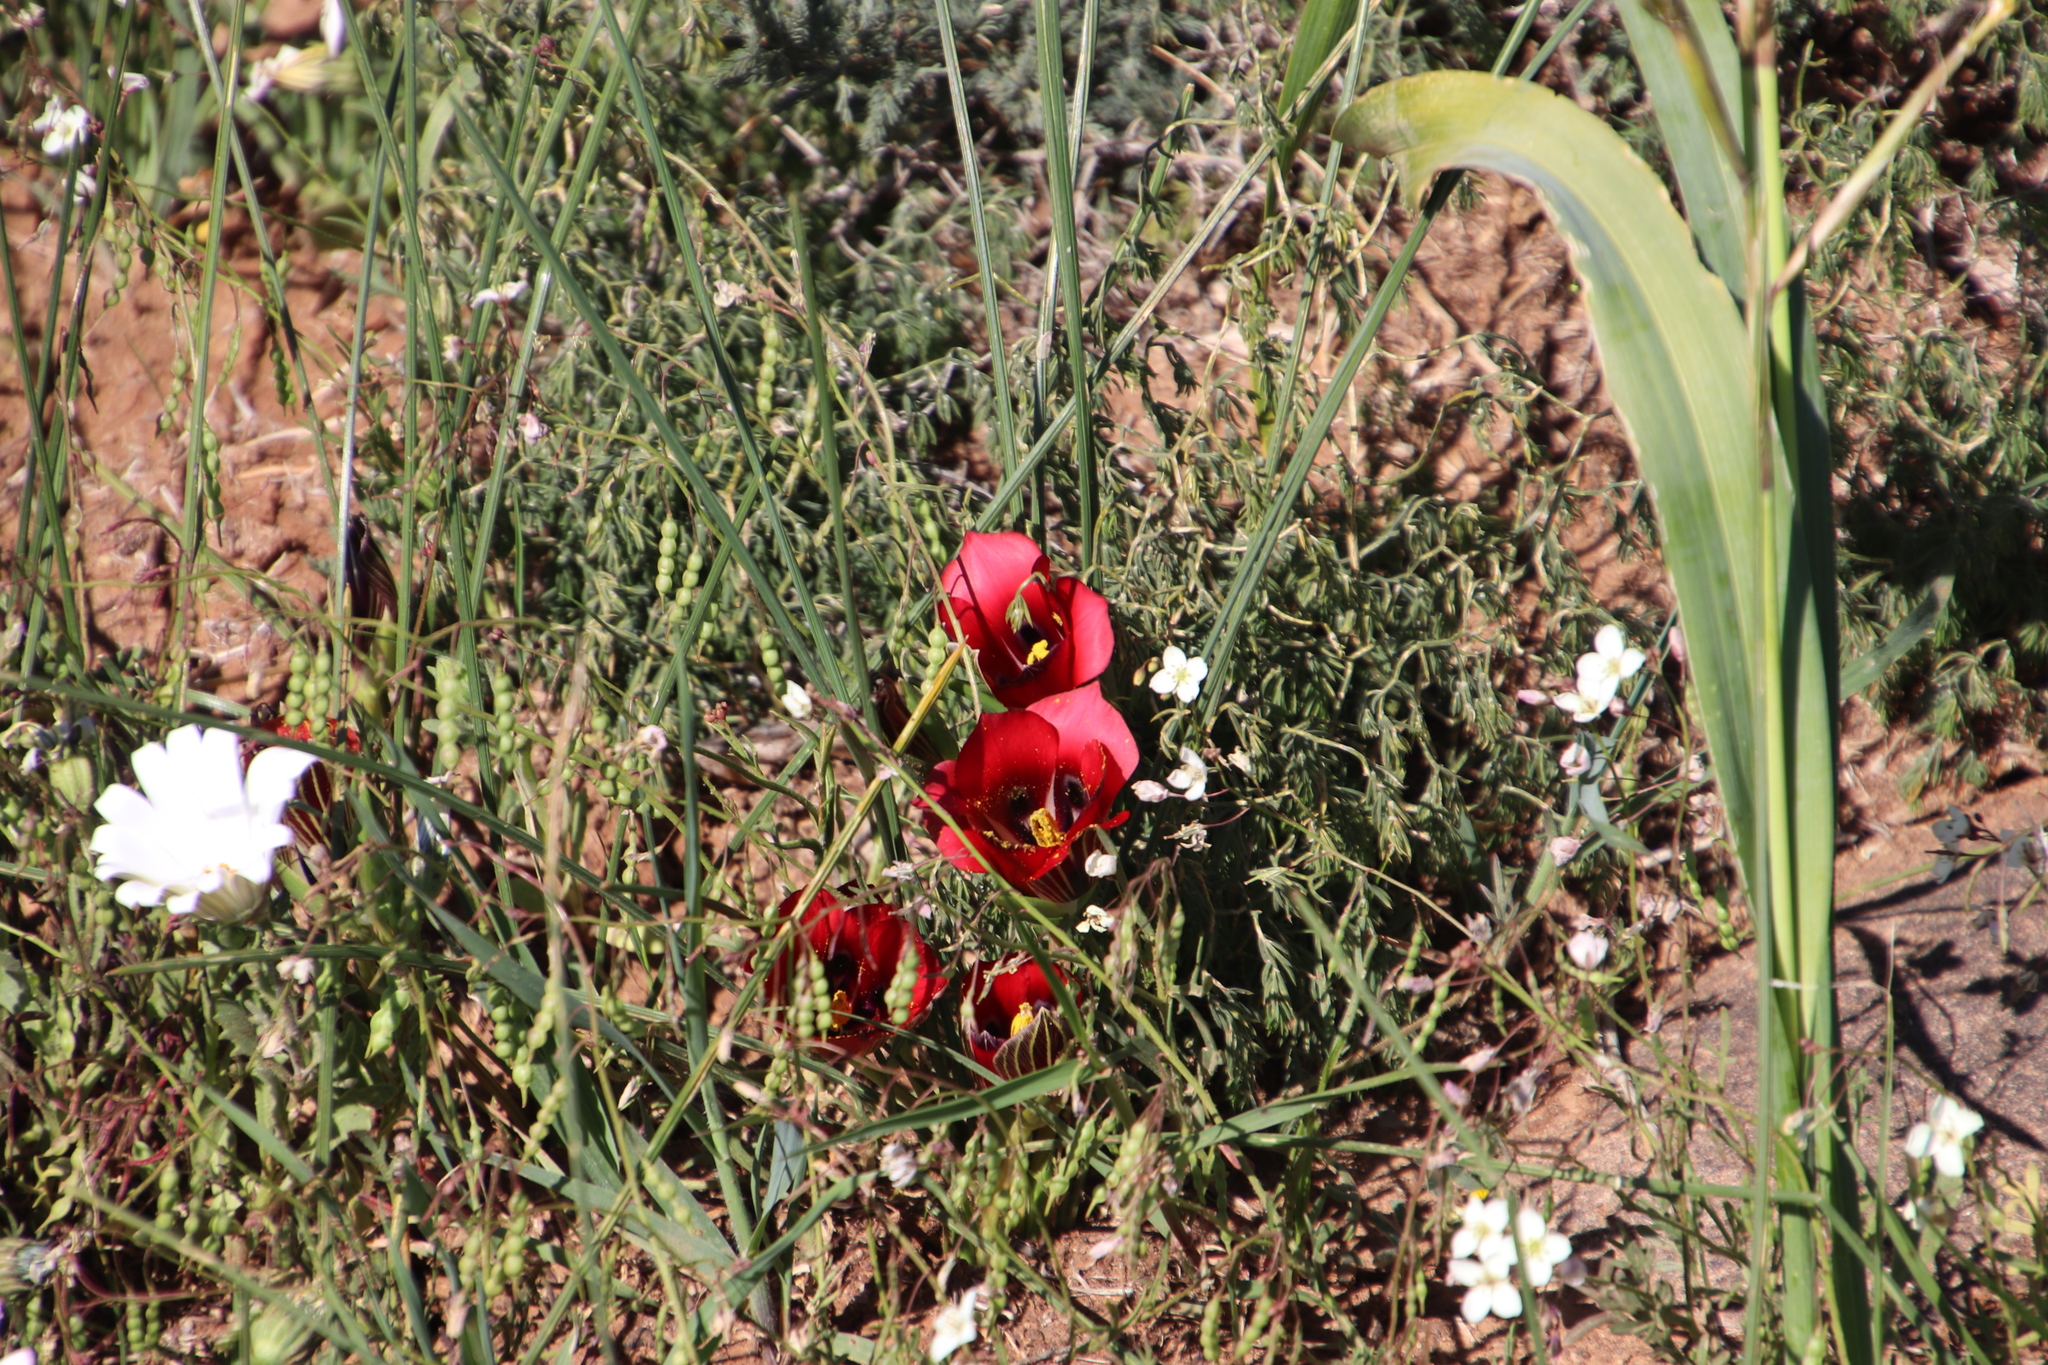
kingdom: Plantae
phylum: Tracheophyta
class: Liliopsida
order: Asparagales
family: Iridaceae
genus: Romulea
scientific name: Romulea sabulosa
